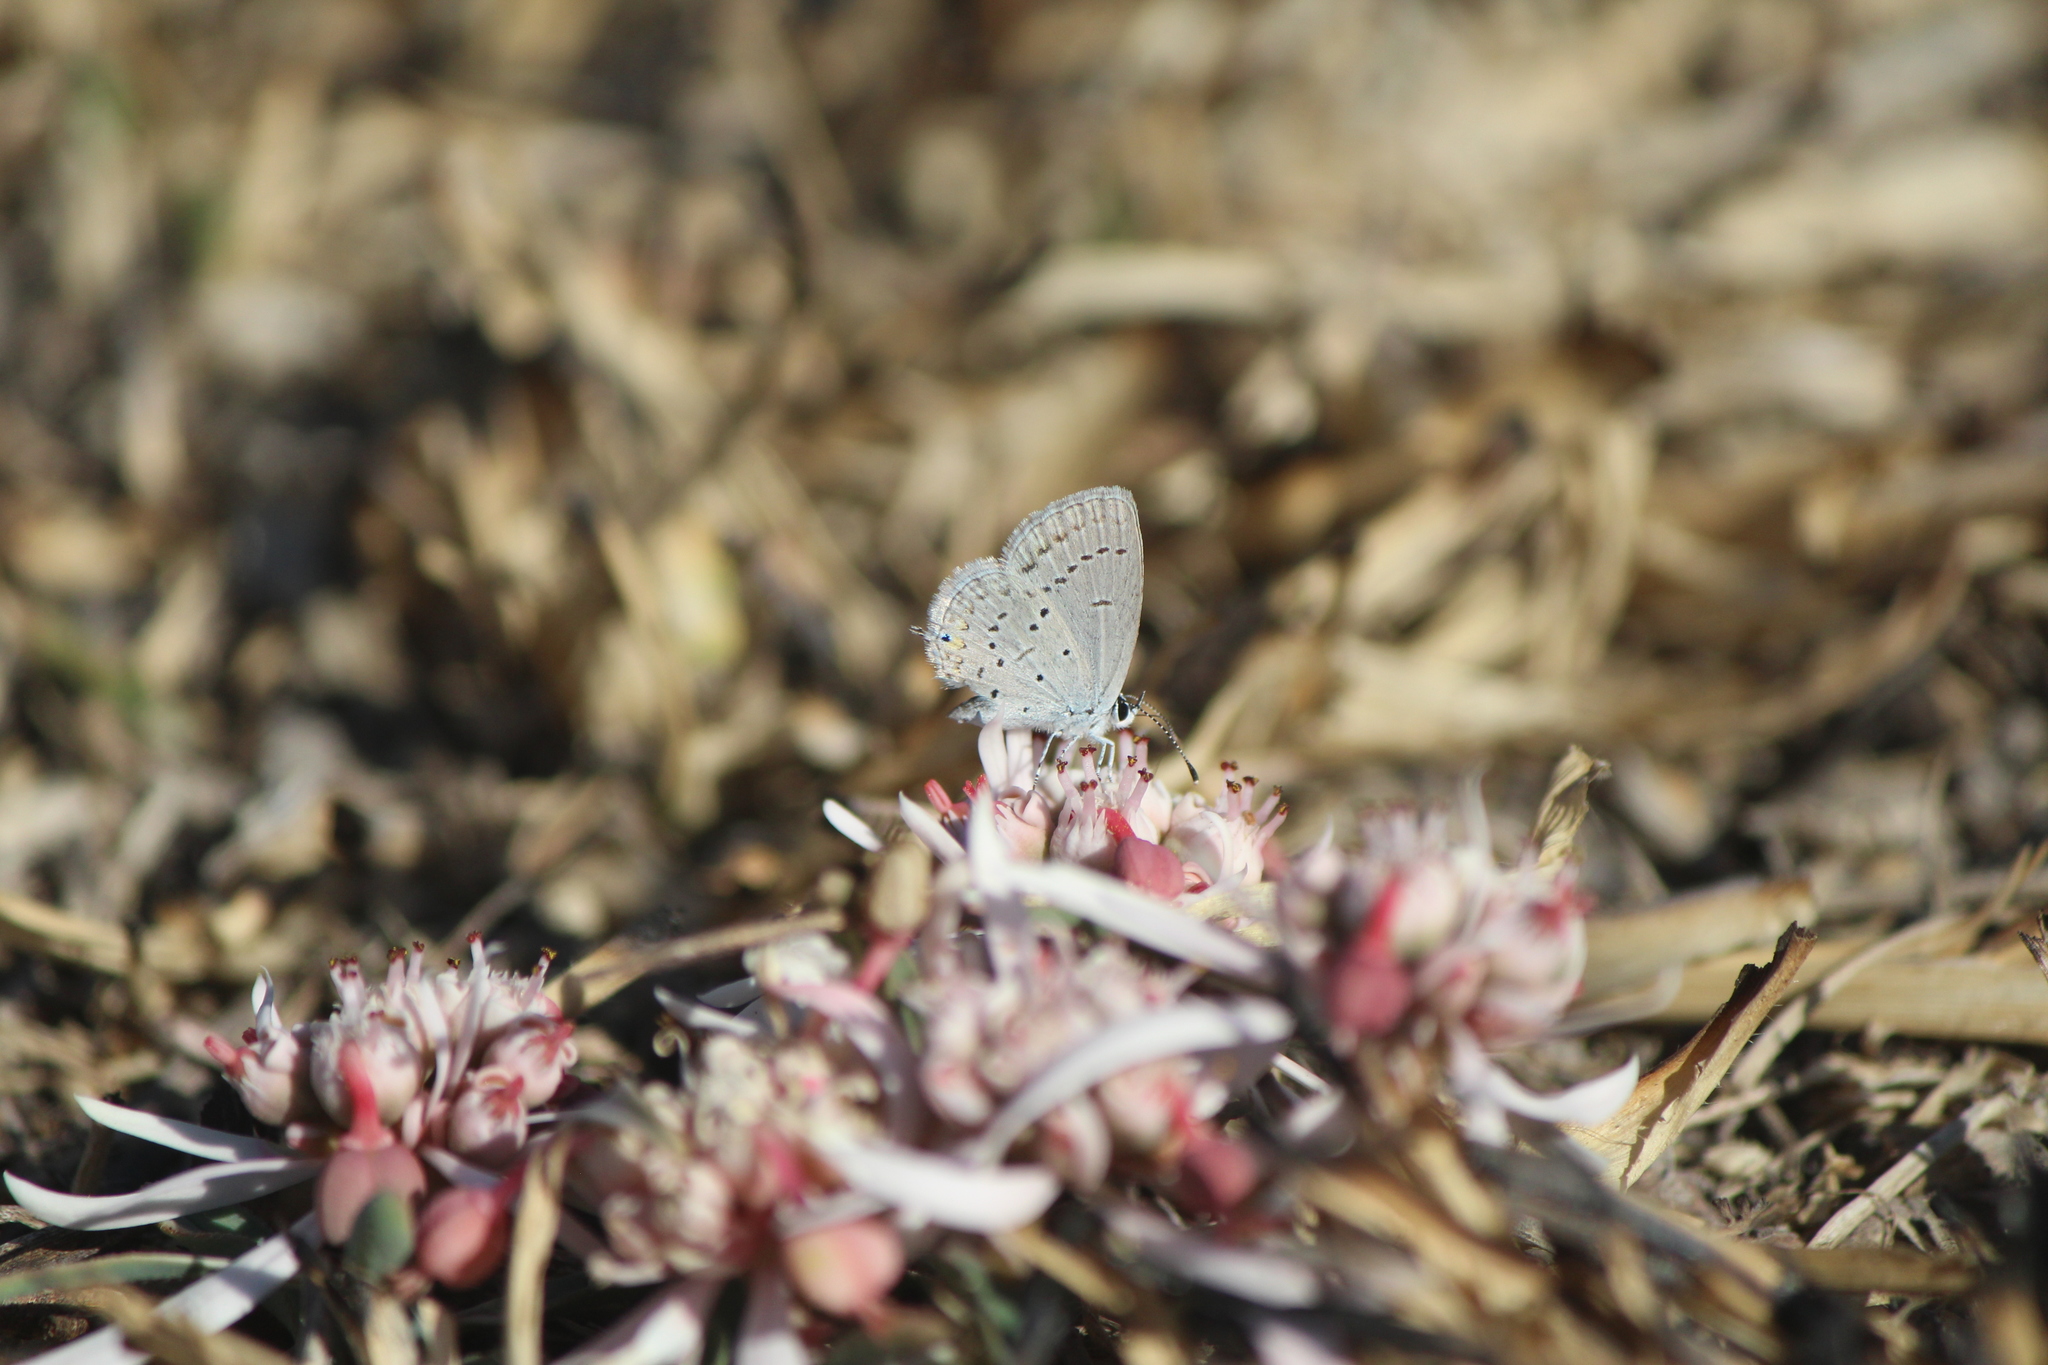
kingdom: Animalia
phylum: Arthropoda
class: Insecta
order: Lepidoptera
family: Lycaenidae
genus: Elkalyce
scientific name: Elkalyce comyntas
